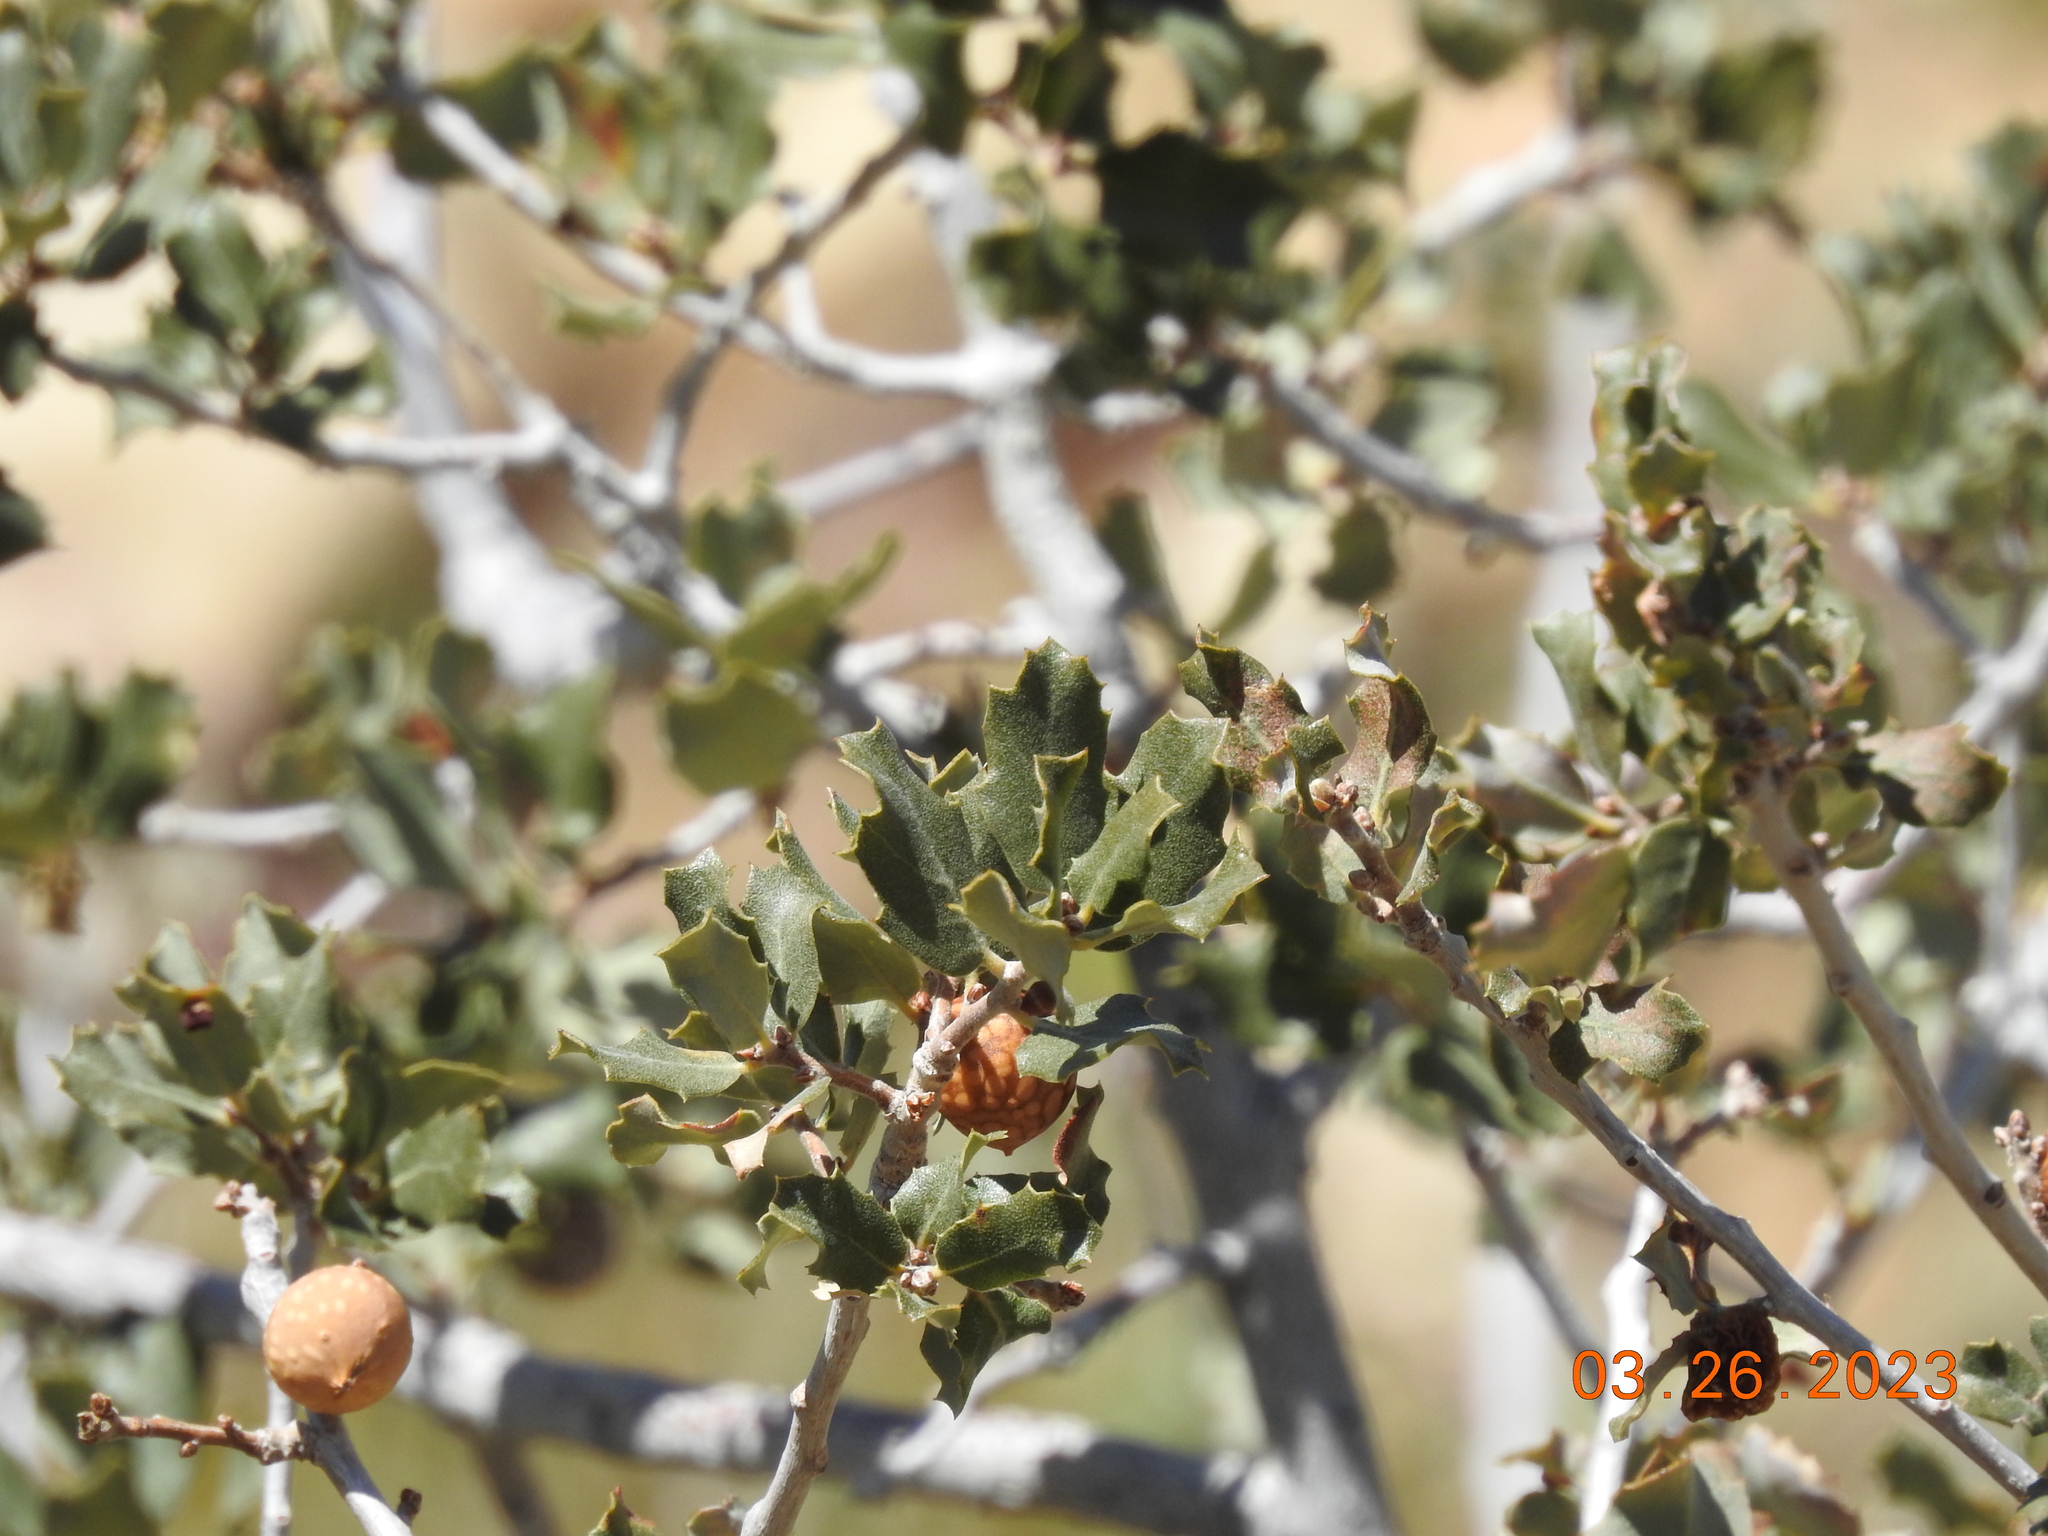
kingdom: Animalia
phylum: Arthropoda
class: Insecta
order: Hymenoptera
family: Cynipidae
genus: Burnettweldia
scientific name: Burnettweldia
